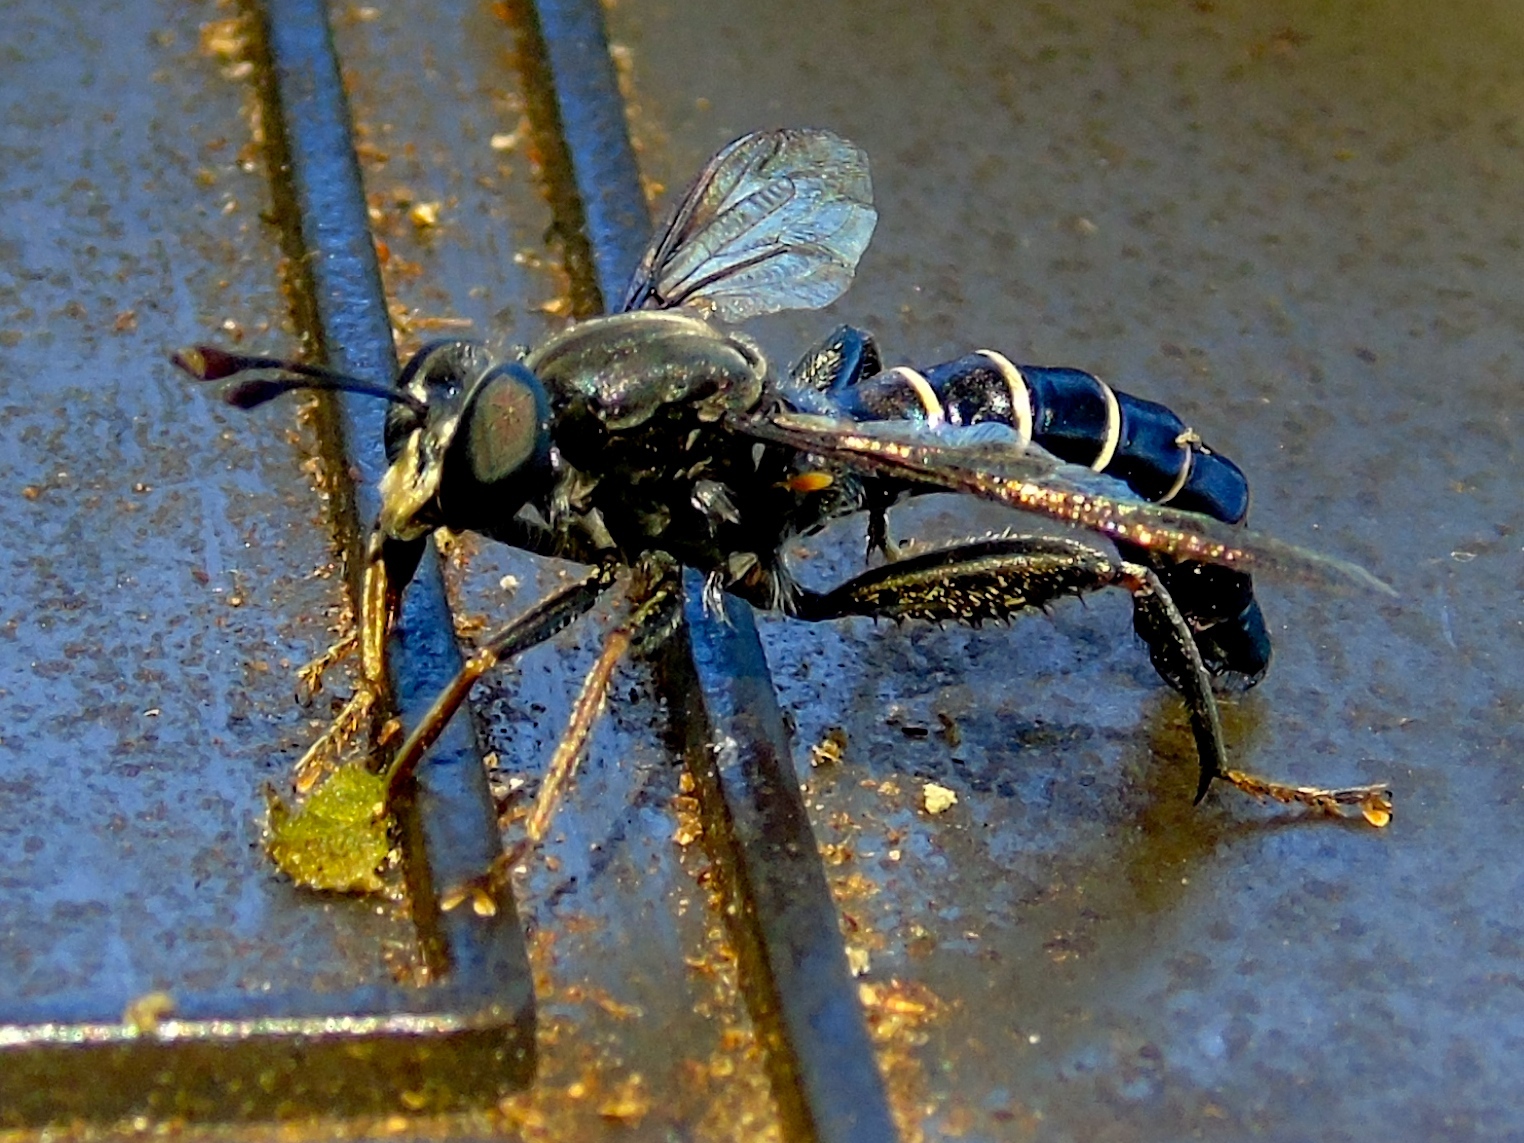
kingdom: Animalia
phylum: Arthropoda
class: Insecta
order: Diptera
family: Mydidae
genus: Mydas
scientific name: Mydas
